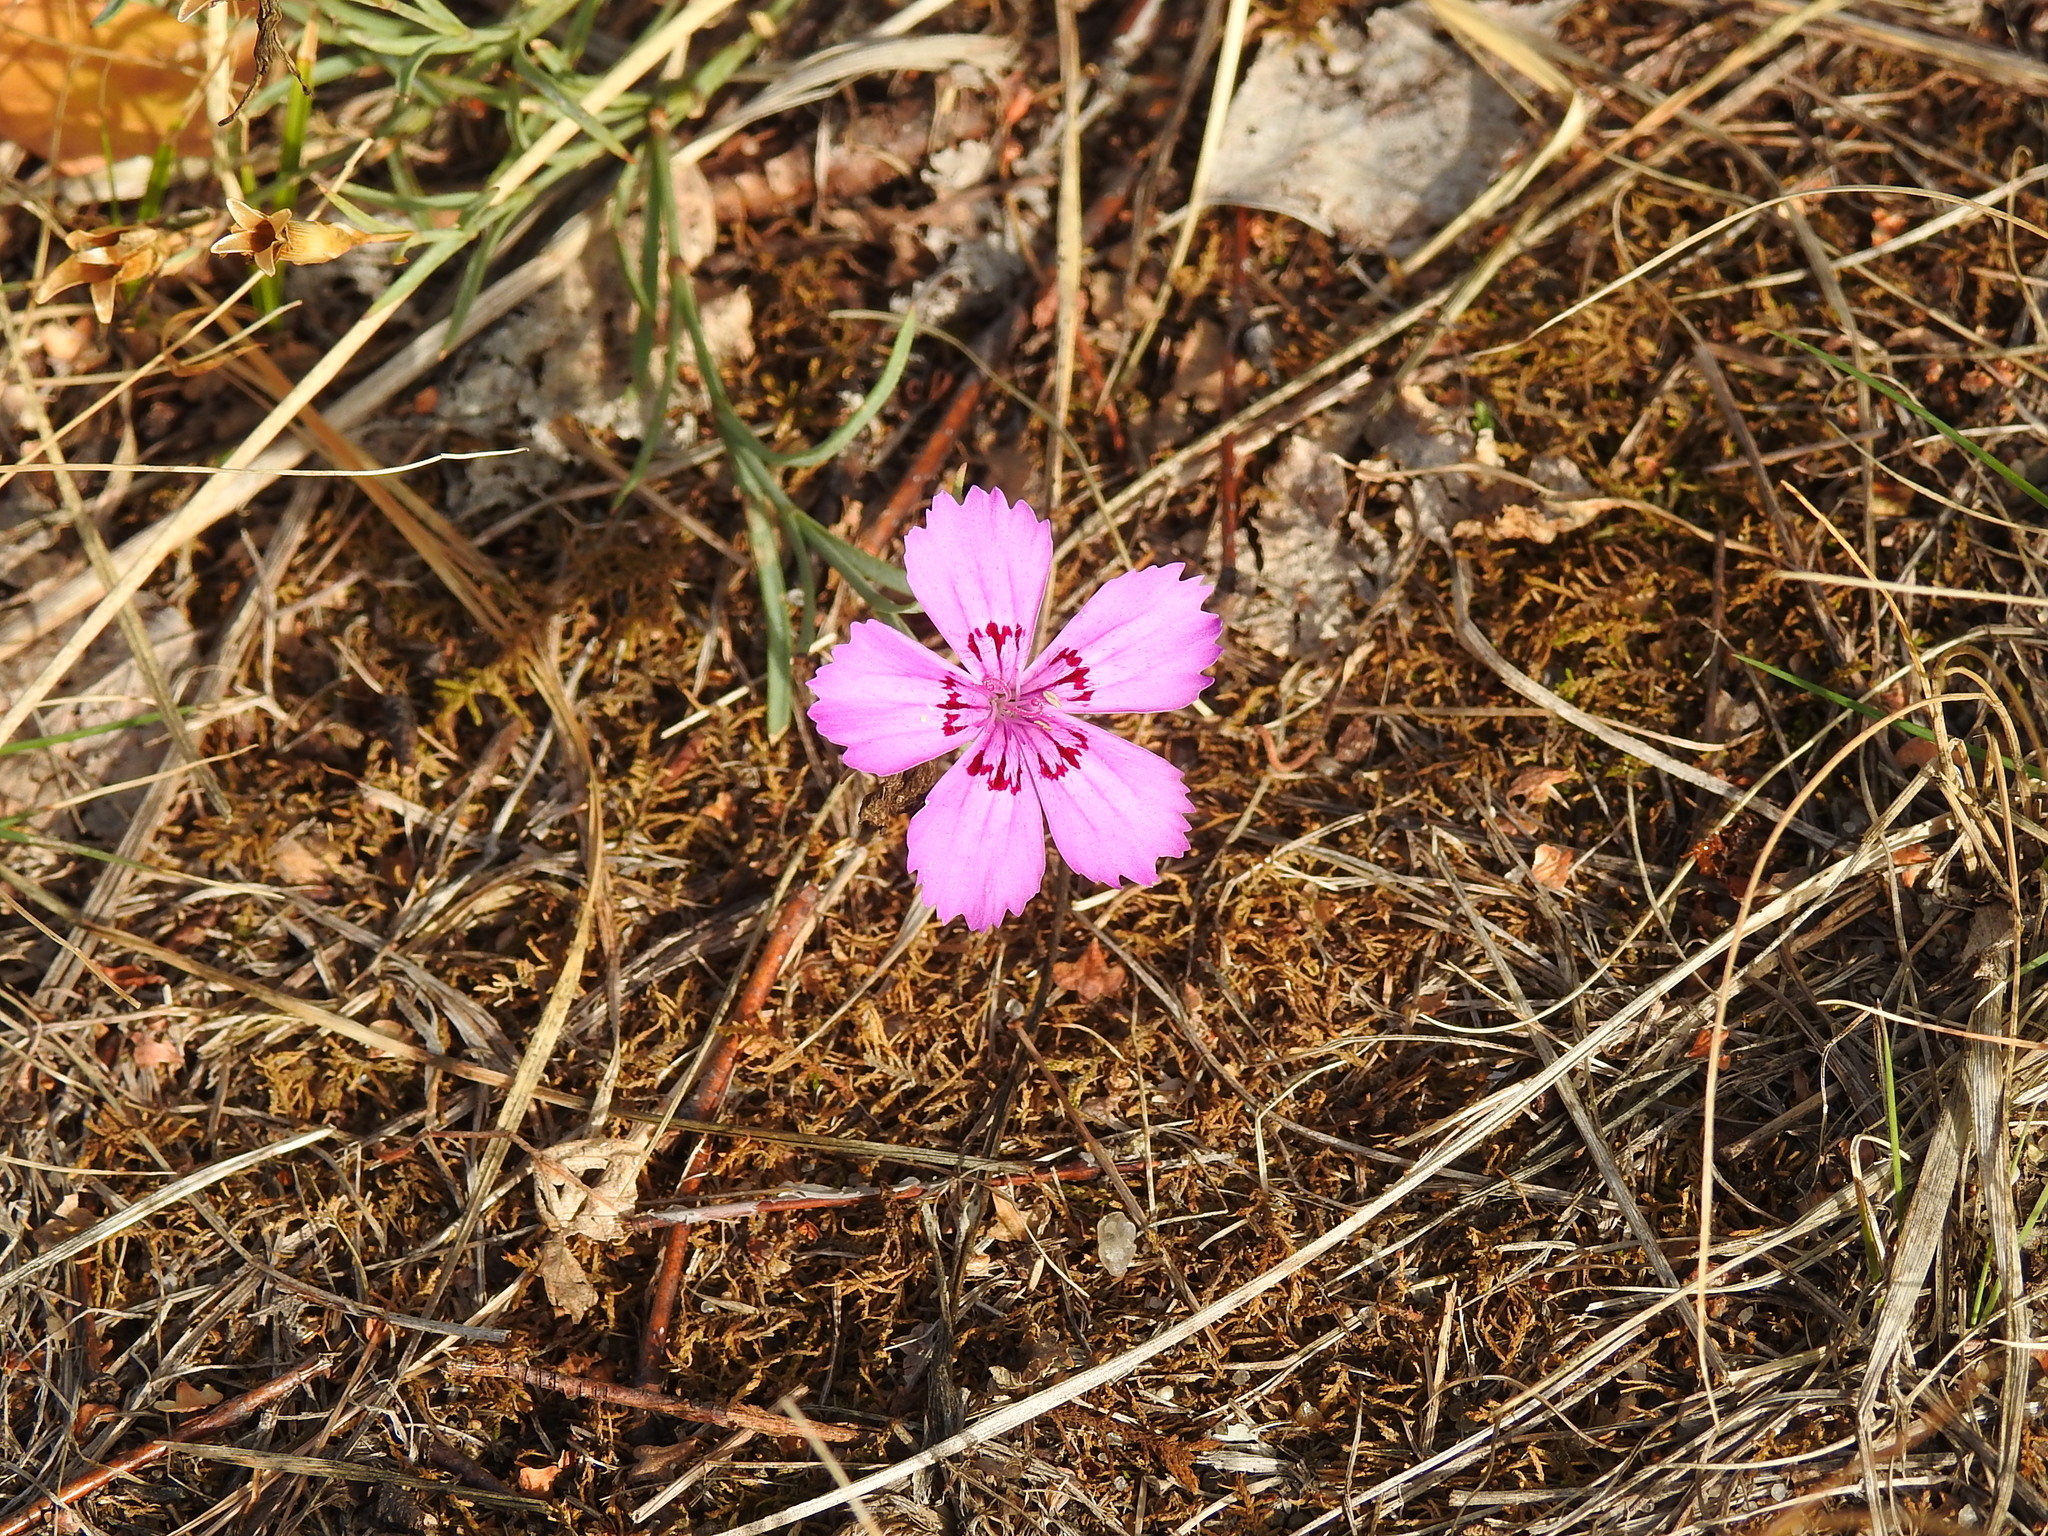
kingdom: Plantae
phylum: Tracheophyta
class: Magnoliopsida
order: Caryophyllales
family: Caryophyllaceae
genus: Dianthus
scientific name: Dianthus chinensis
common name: Rainbow pink
